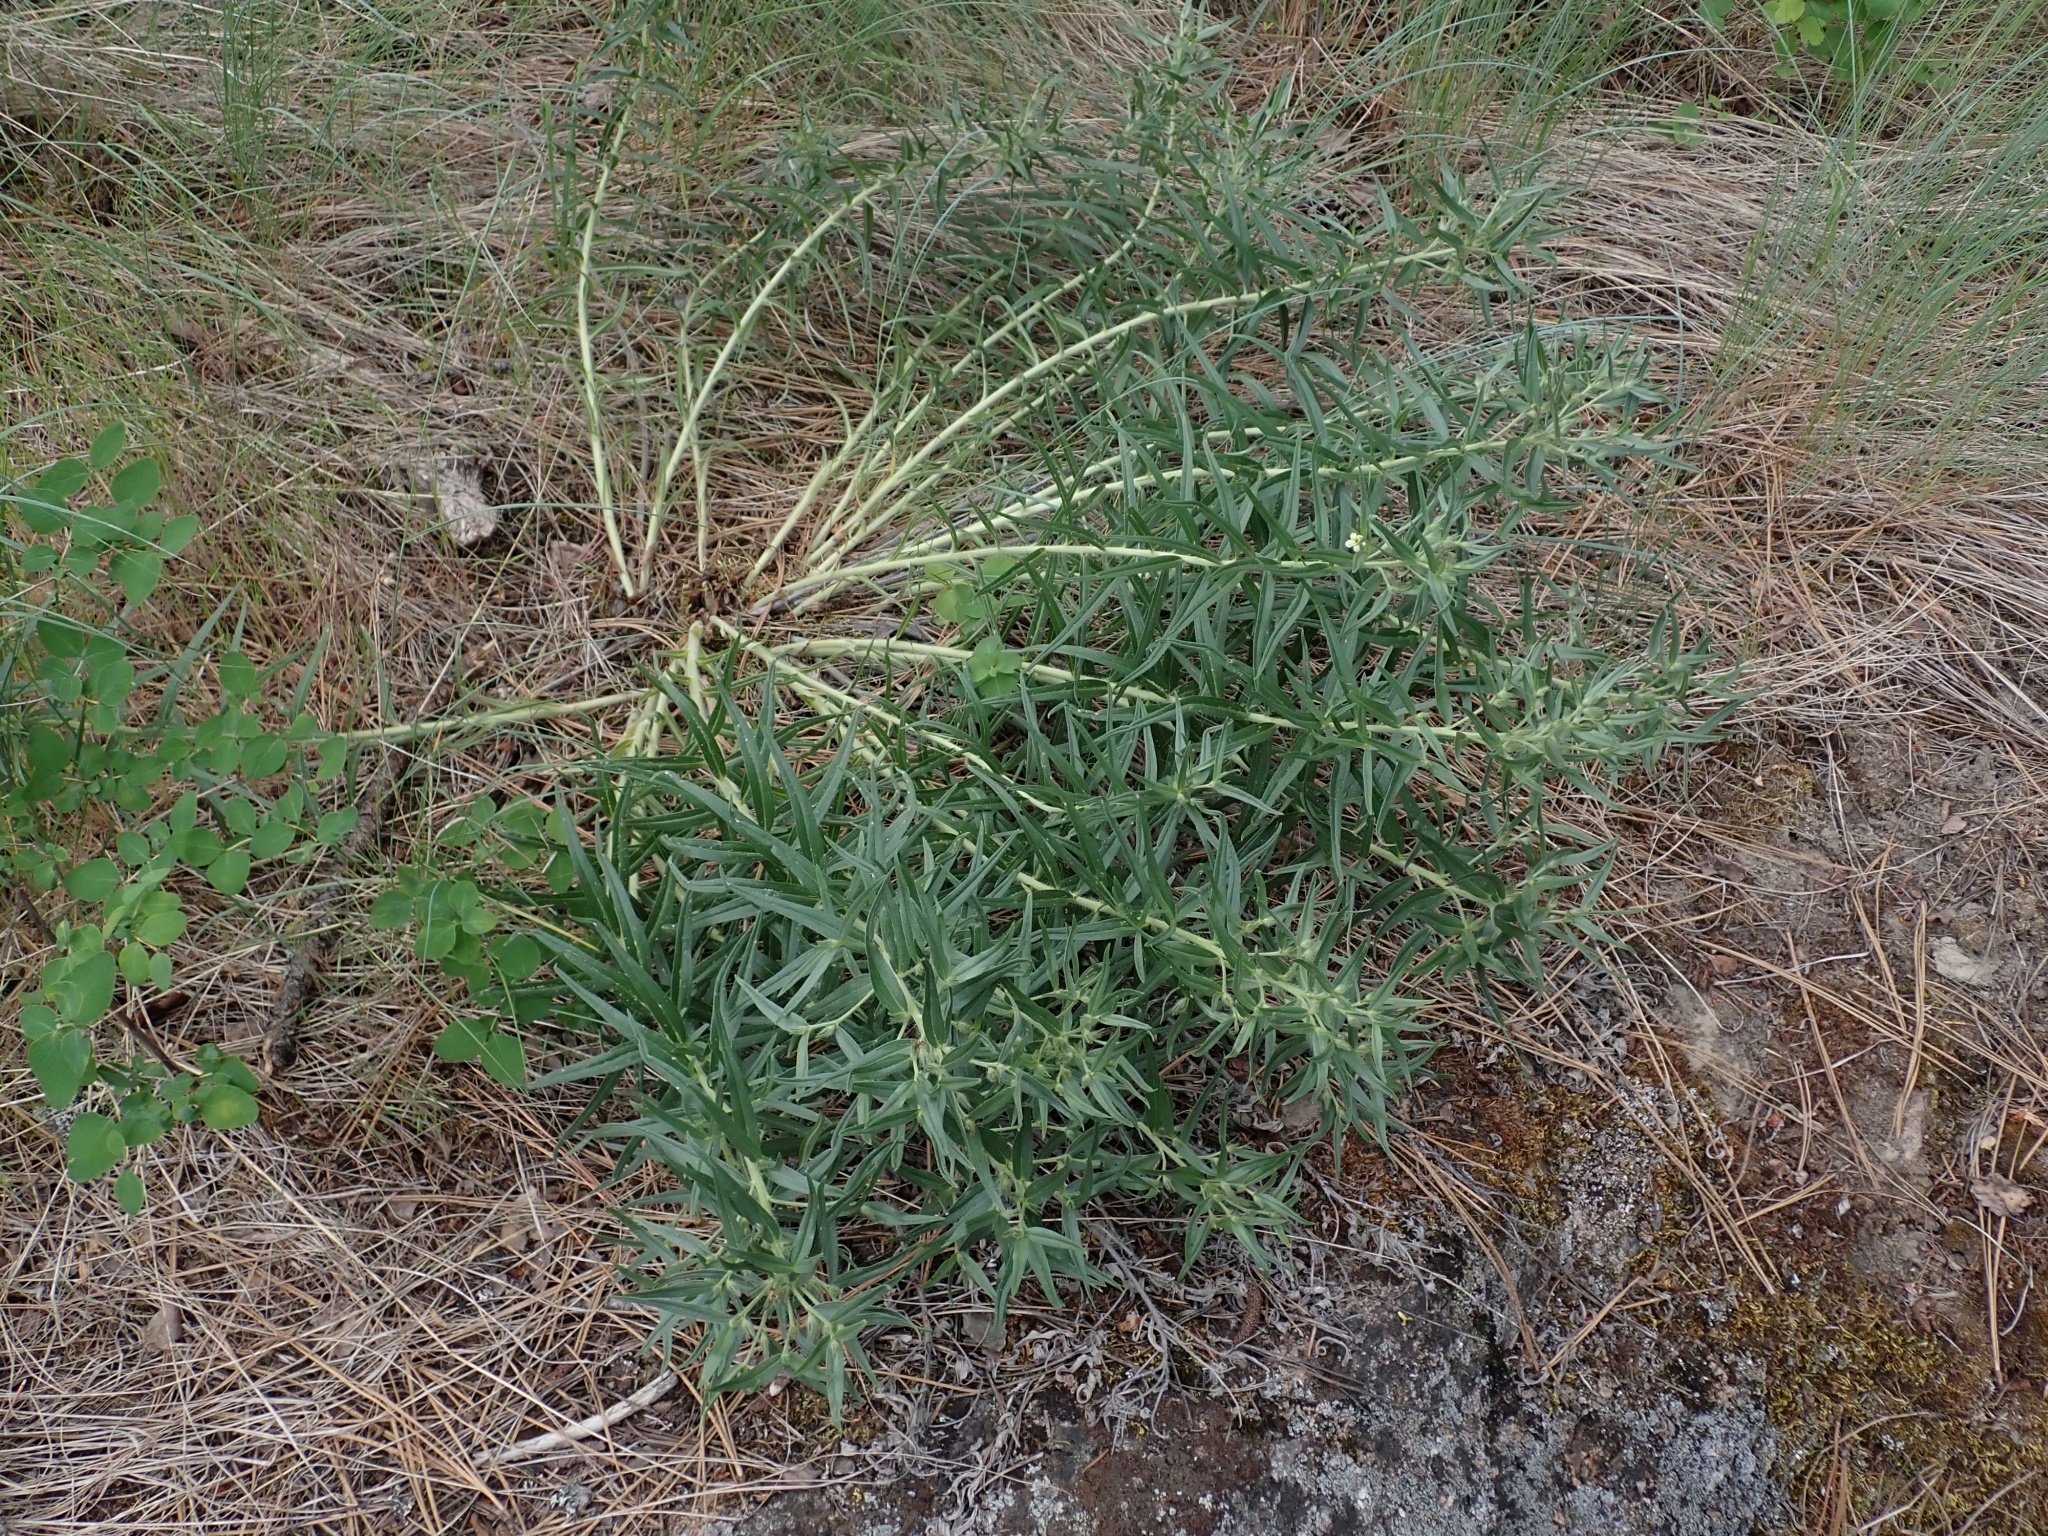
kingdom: Plantae
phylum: Tracheophyta
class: Magnoliopsida
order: Boraginales
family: Boraginaceae
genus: Lithospermum
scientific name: Lithospermum ruderale
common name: Western gromwell
